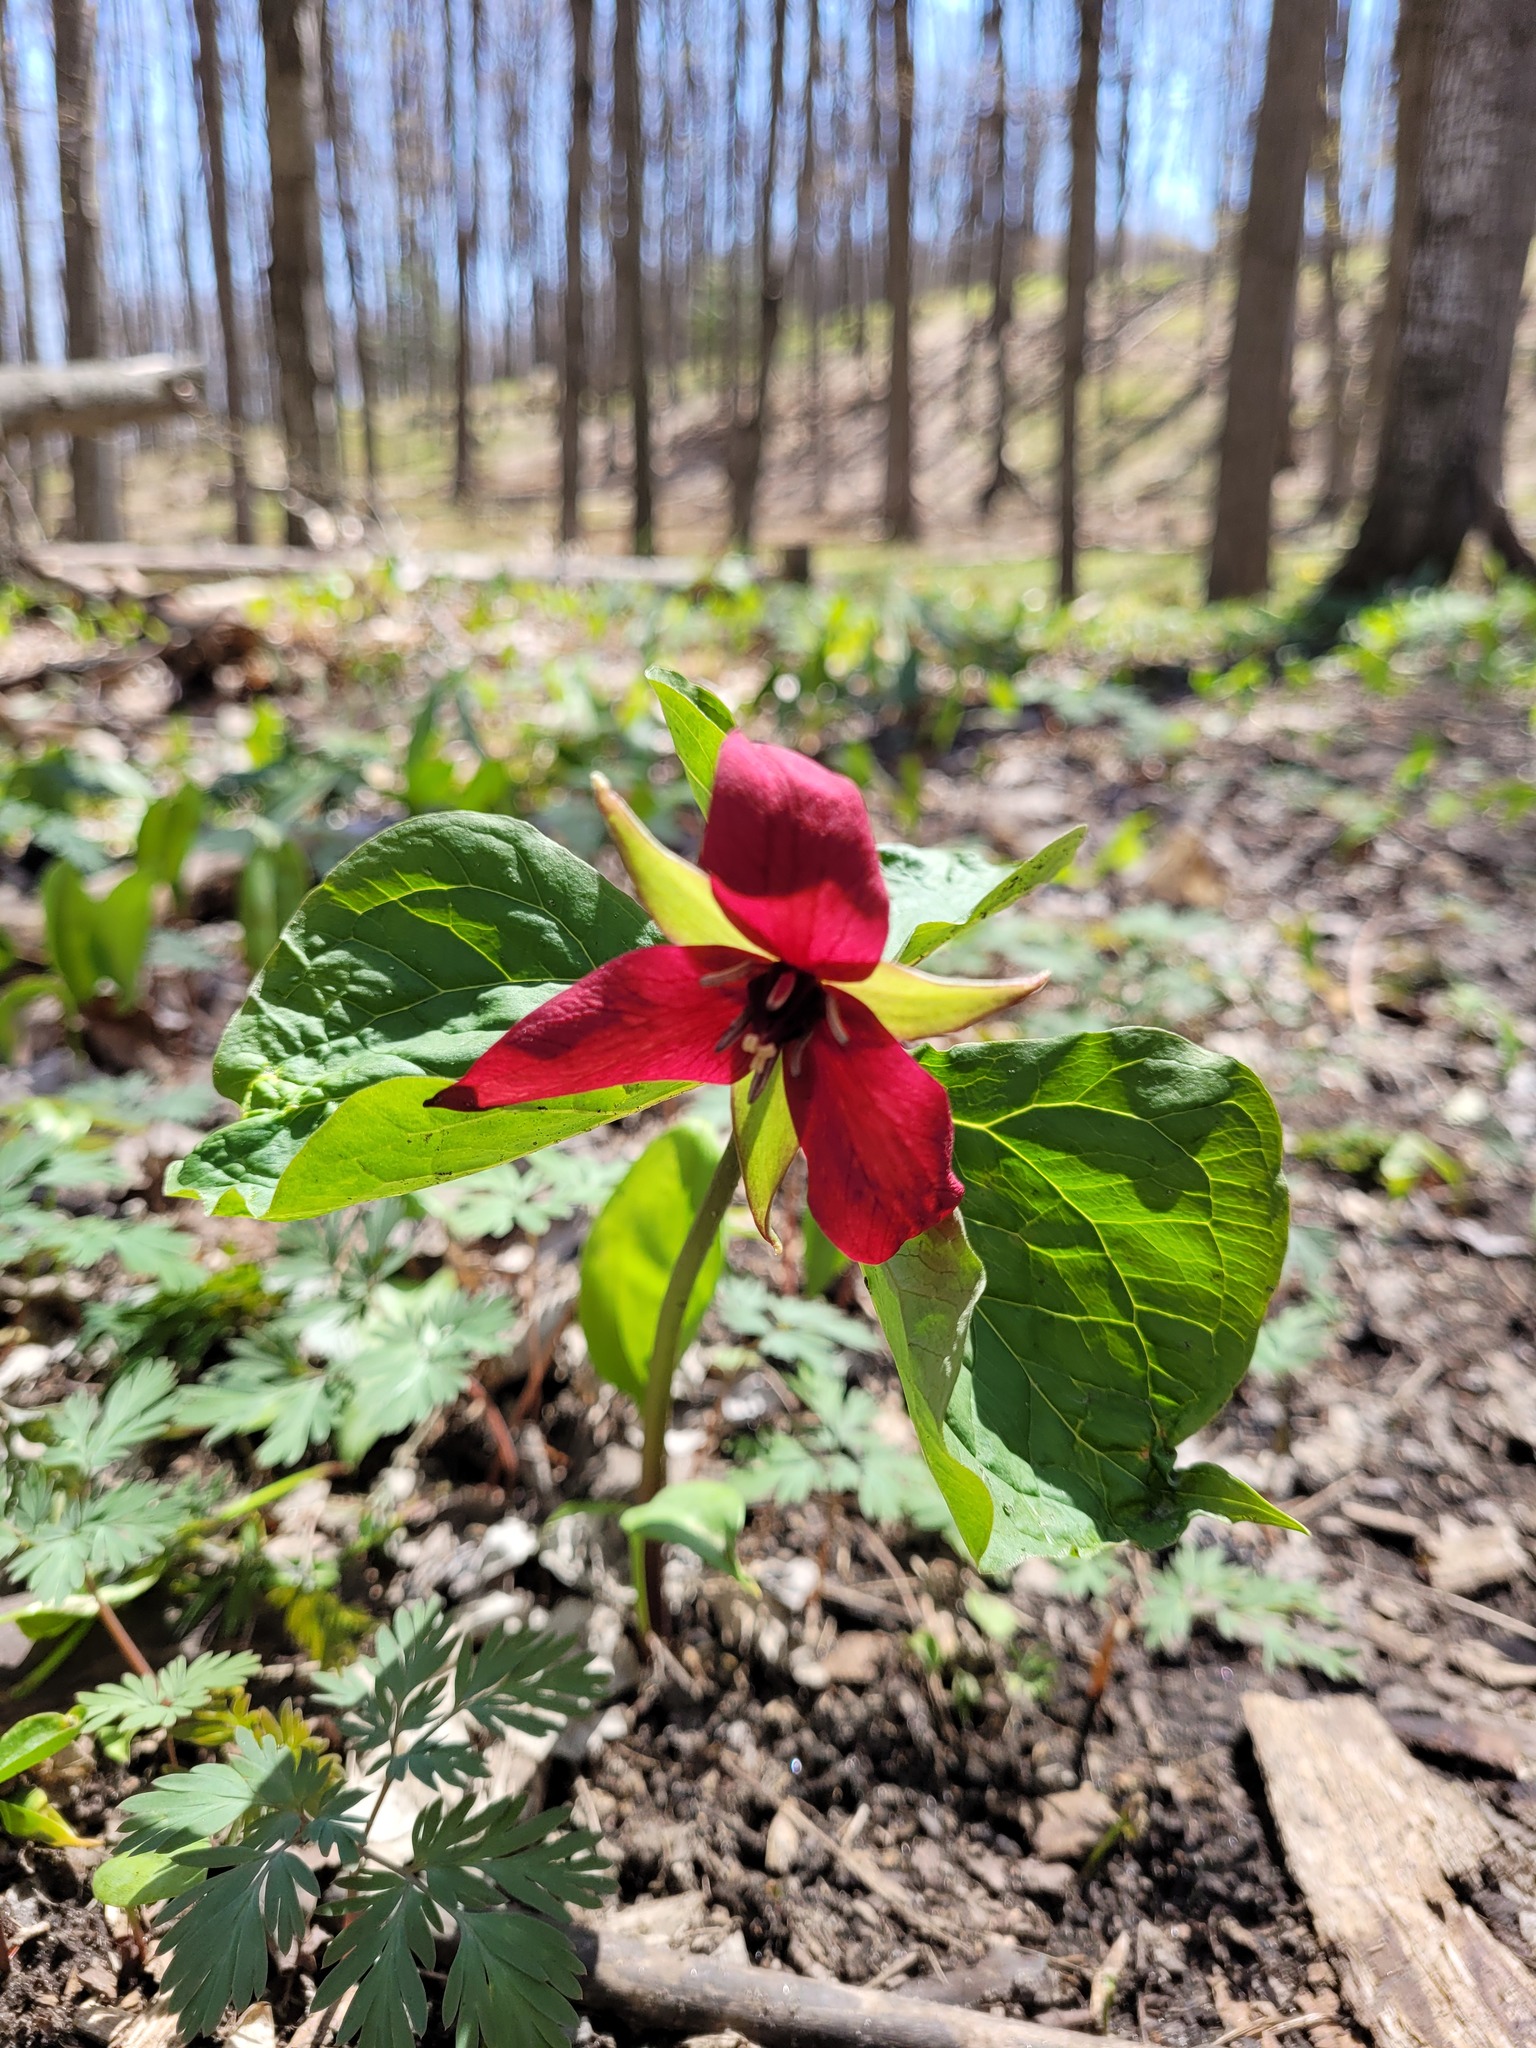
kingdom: Plantae
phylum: Tracheophyta
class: Liliopsida
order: Liliales
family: Melanthiaceae
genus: Trillium
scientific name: Trillium erectum
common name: Purple trillium
